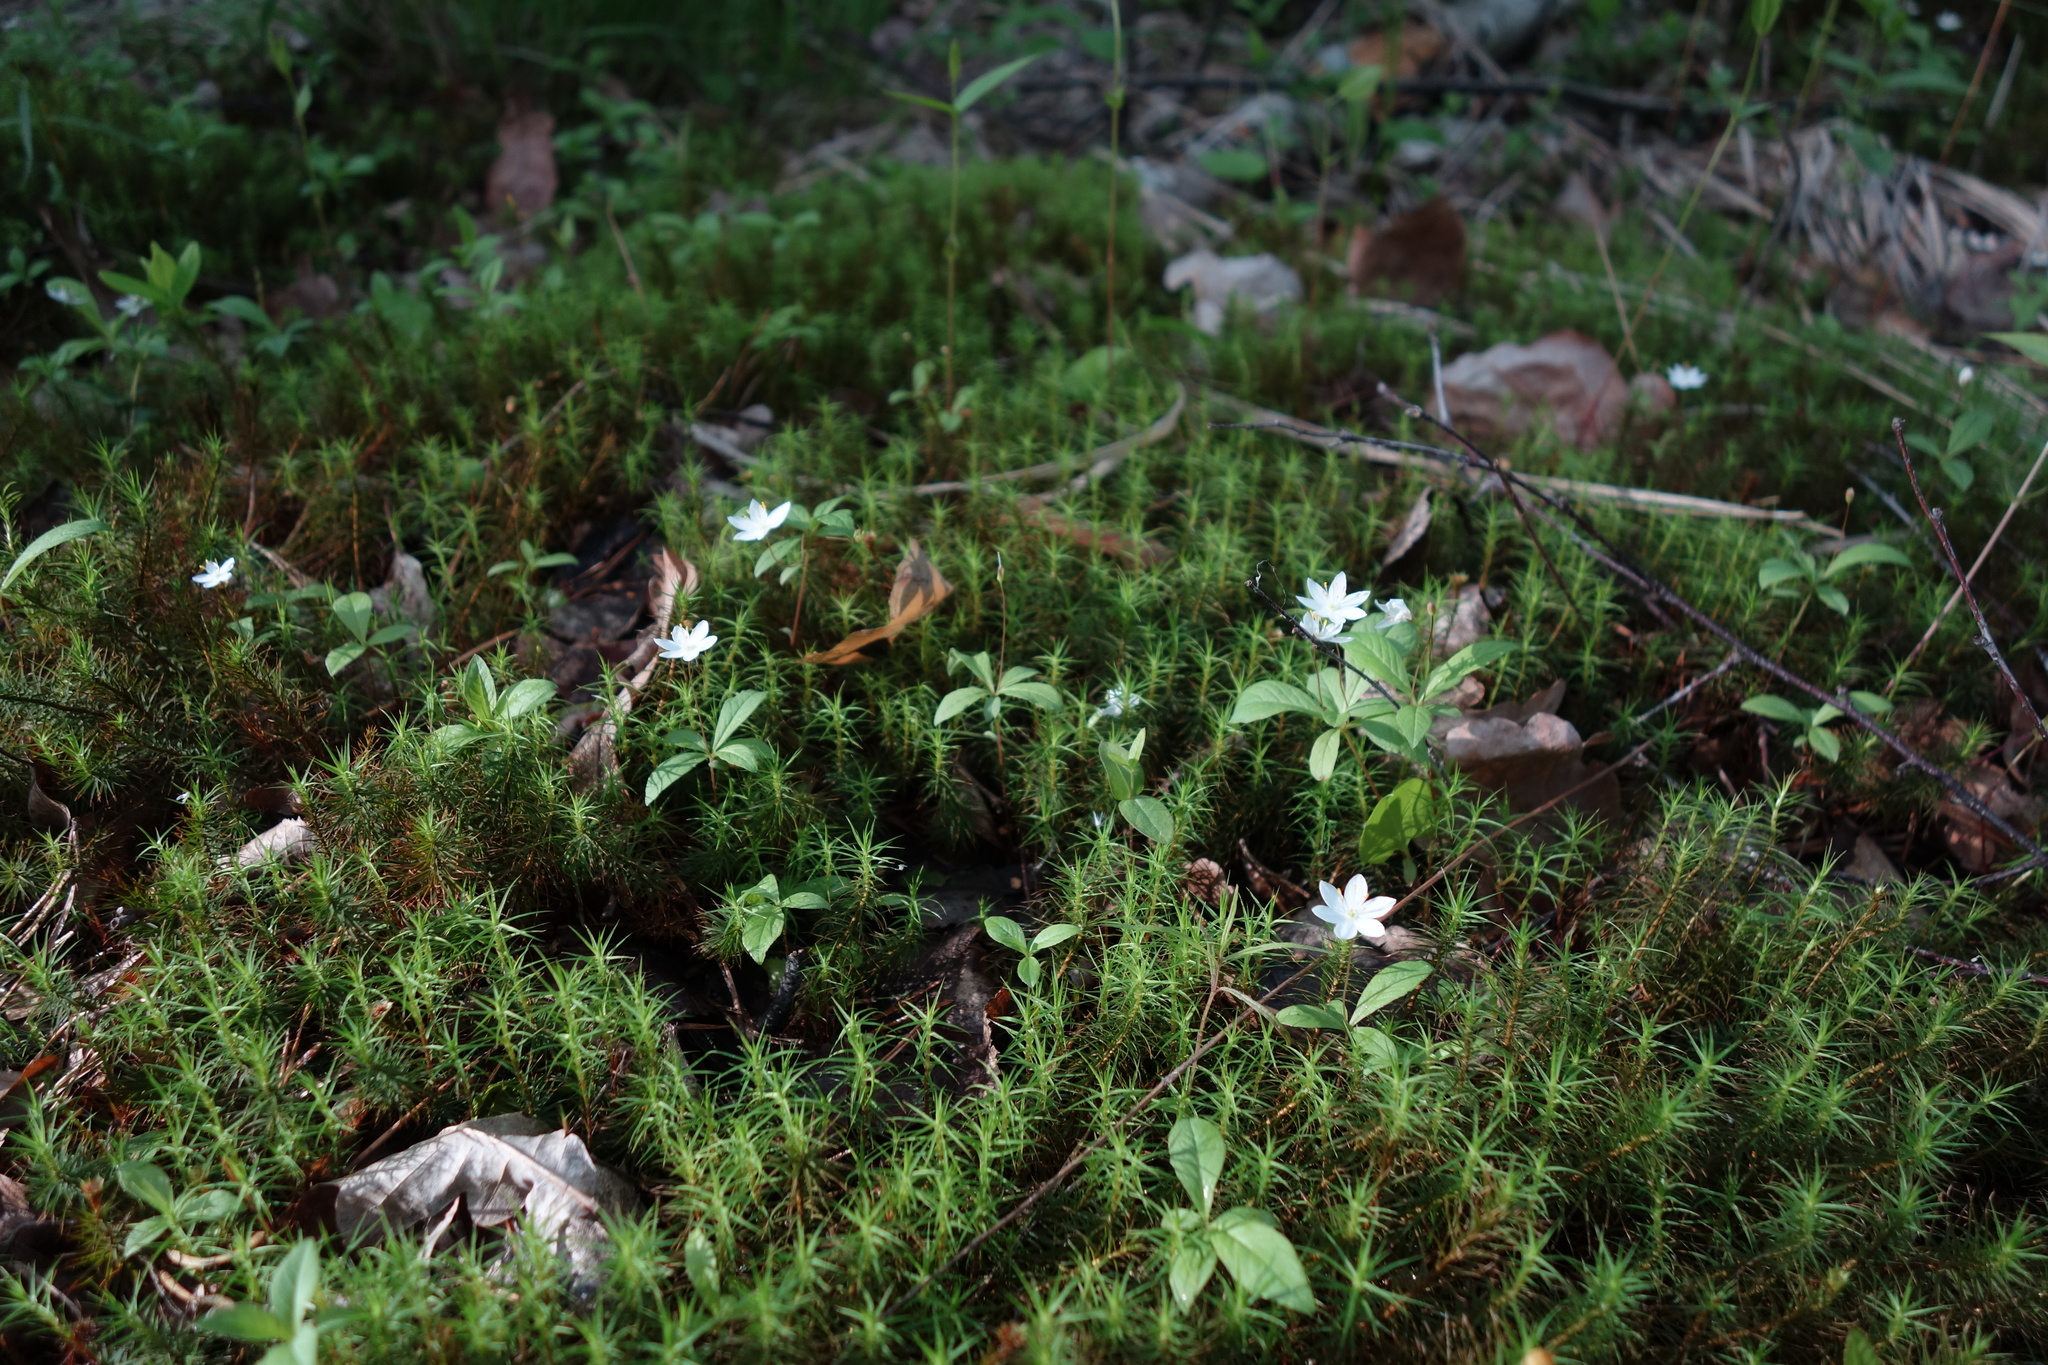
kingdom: Plantae
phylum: Tracheophyta
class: Magnoliopsida
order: Ericales
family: Primulaceae
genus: Lysimachia
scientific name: Lysimachia europaea
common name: Arctic starflower
